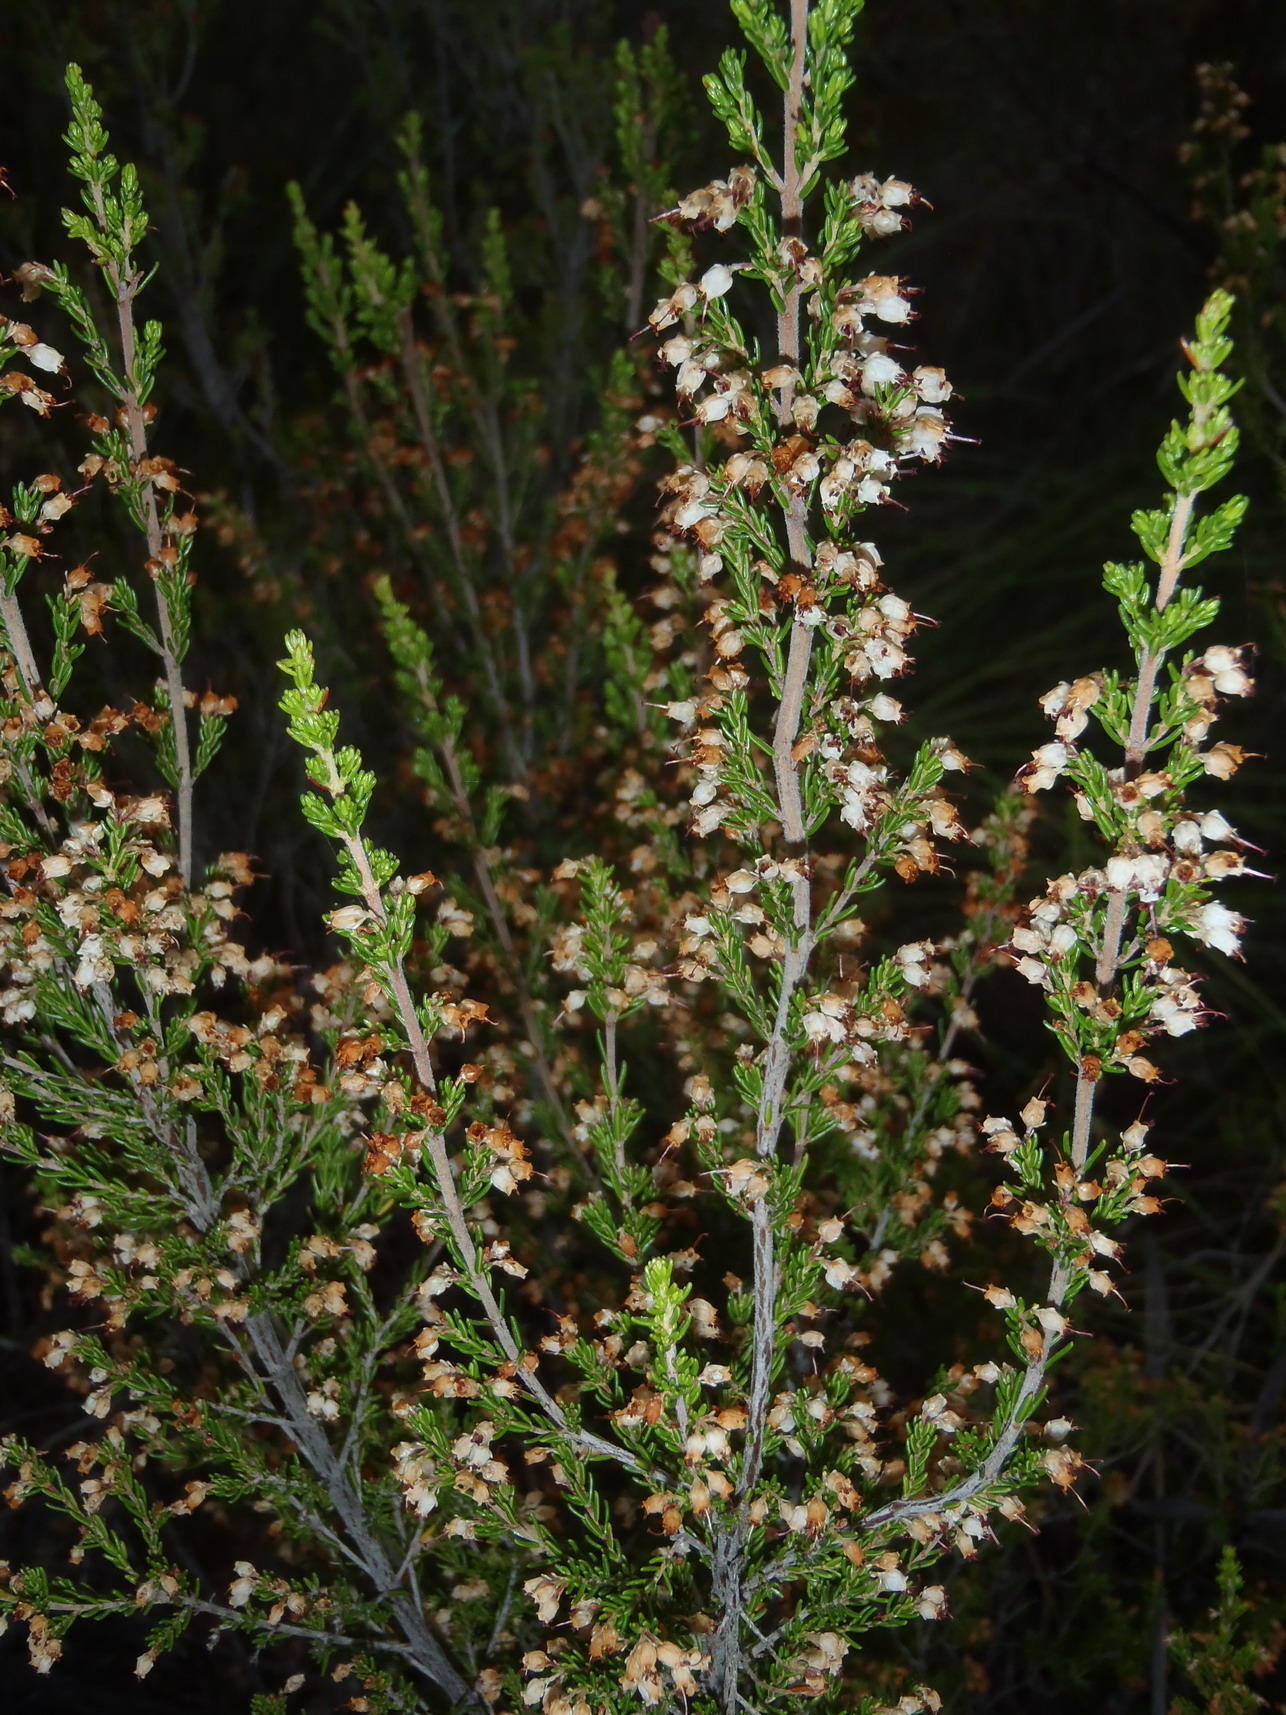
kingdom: Plantae
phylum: Tracheophyta
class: Magnoliopsida
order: Ericales
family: Ericaceae
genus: Erica
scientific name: Erica opulenta
